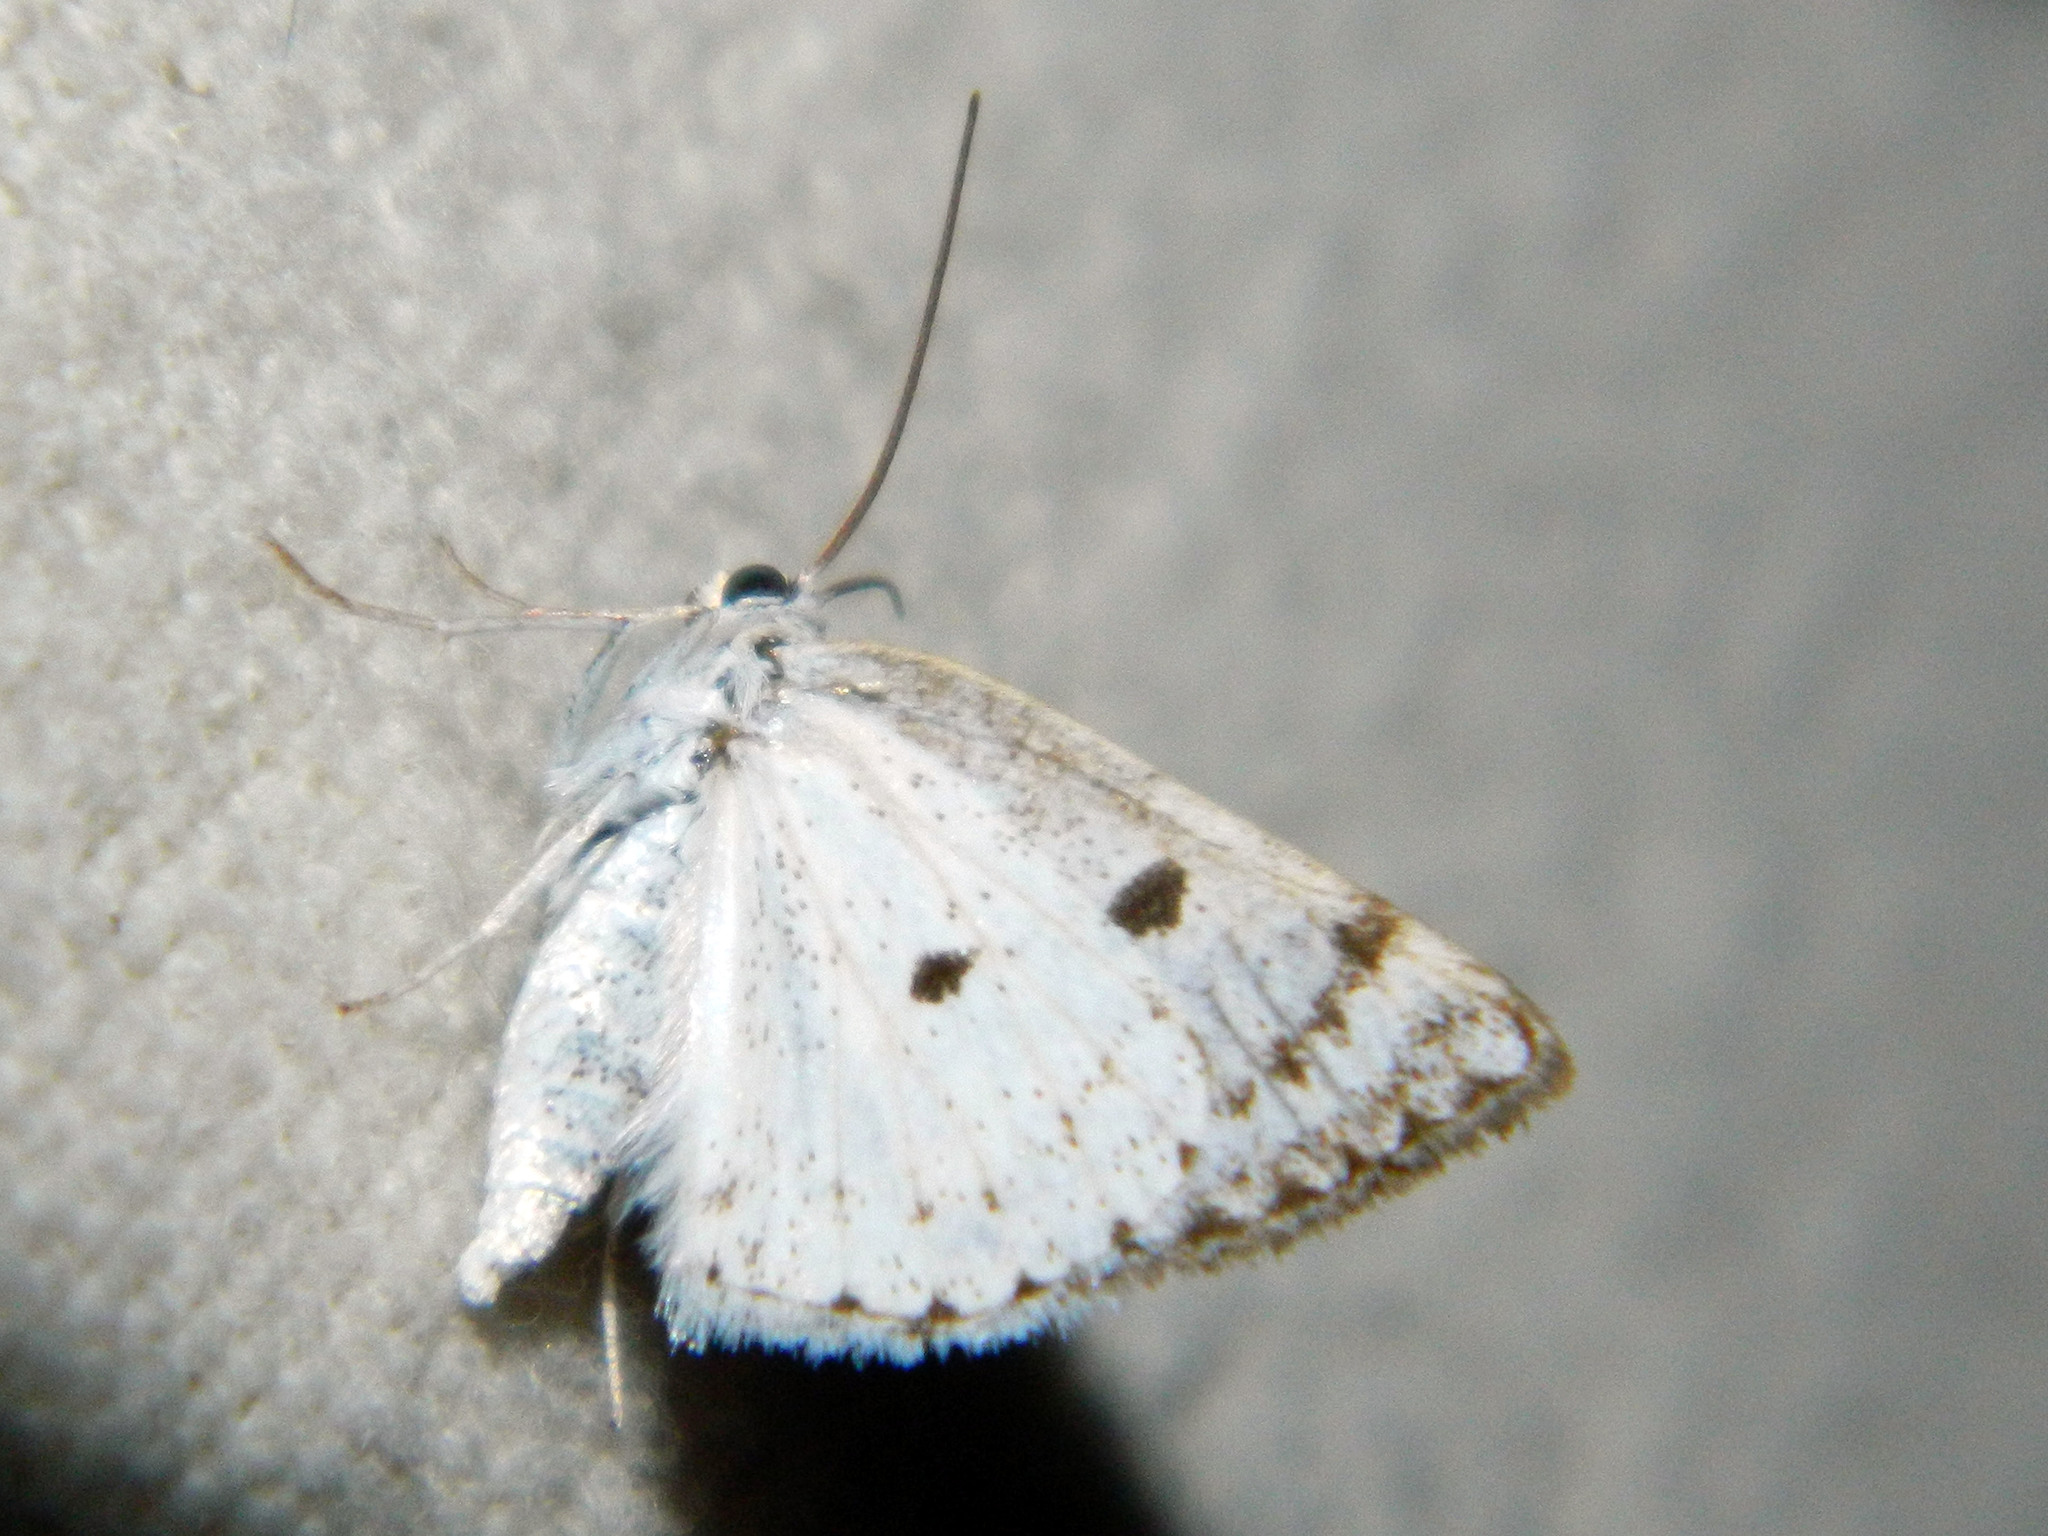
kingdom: Animalia
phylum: Arthropoda
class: Insecta
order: Lepidoptera
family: Geometridae
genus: Lomographa
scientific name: Lomographa semiclarata
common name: Bluish spring moth
